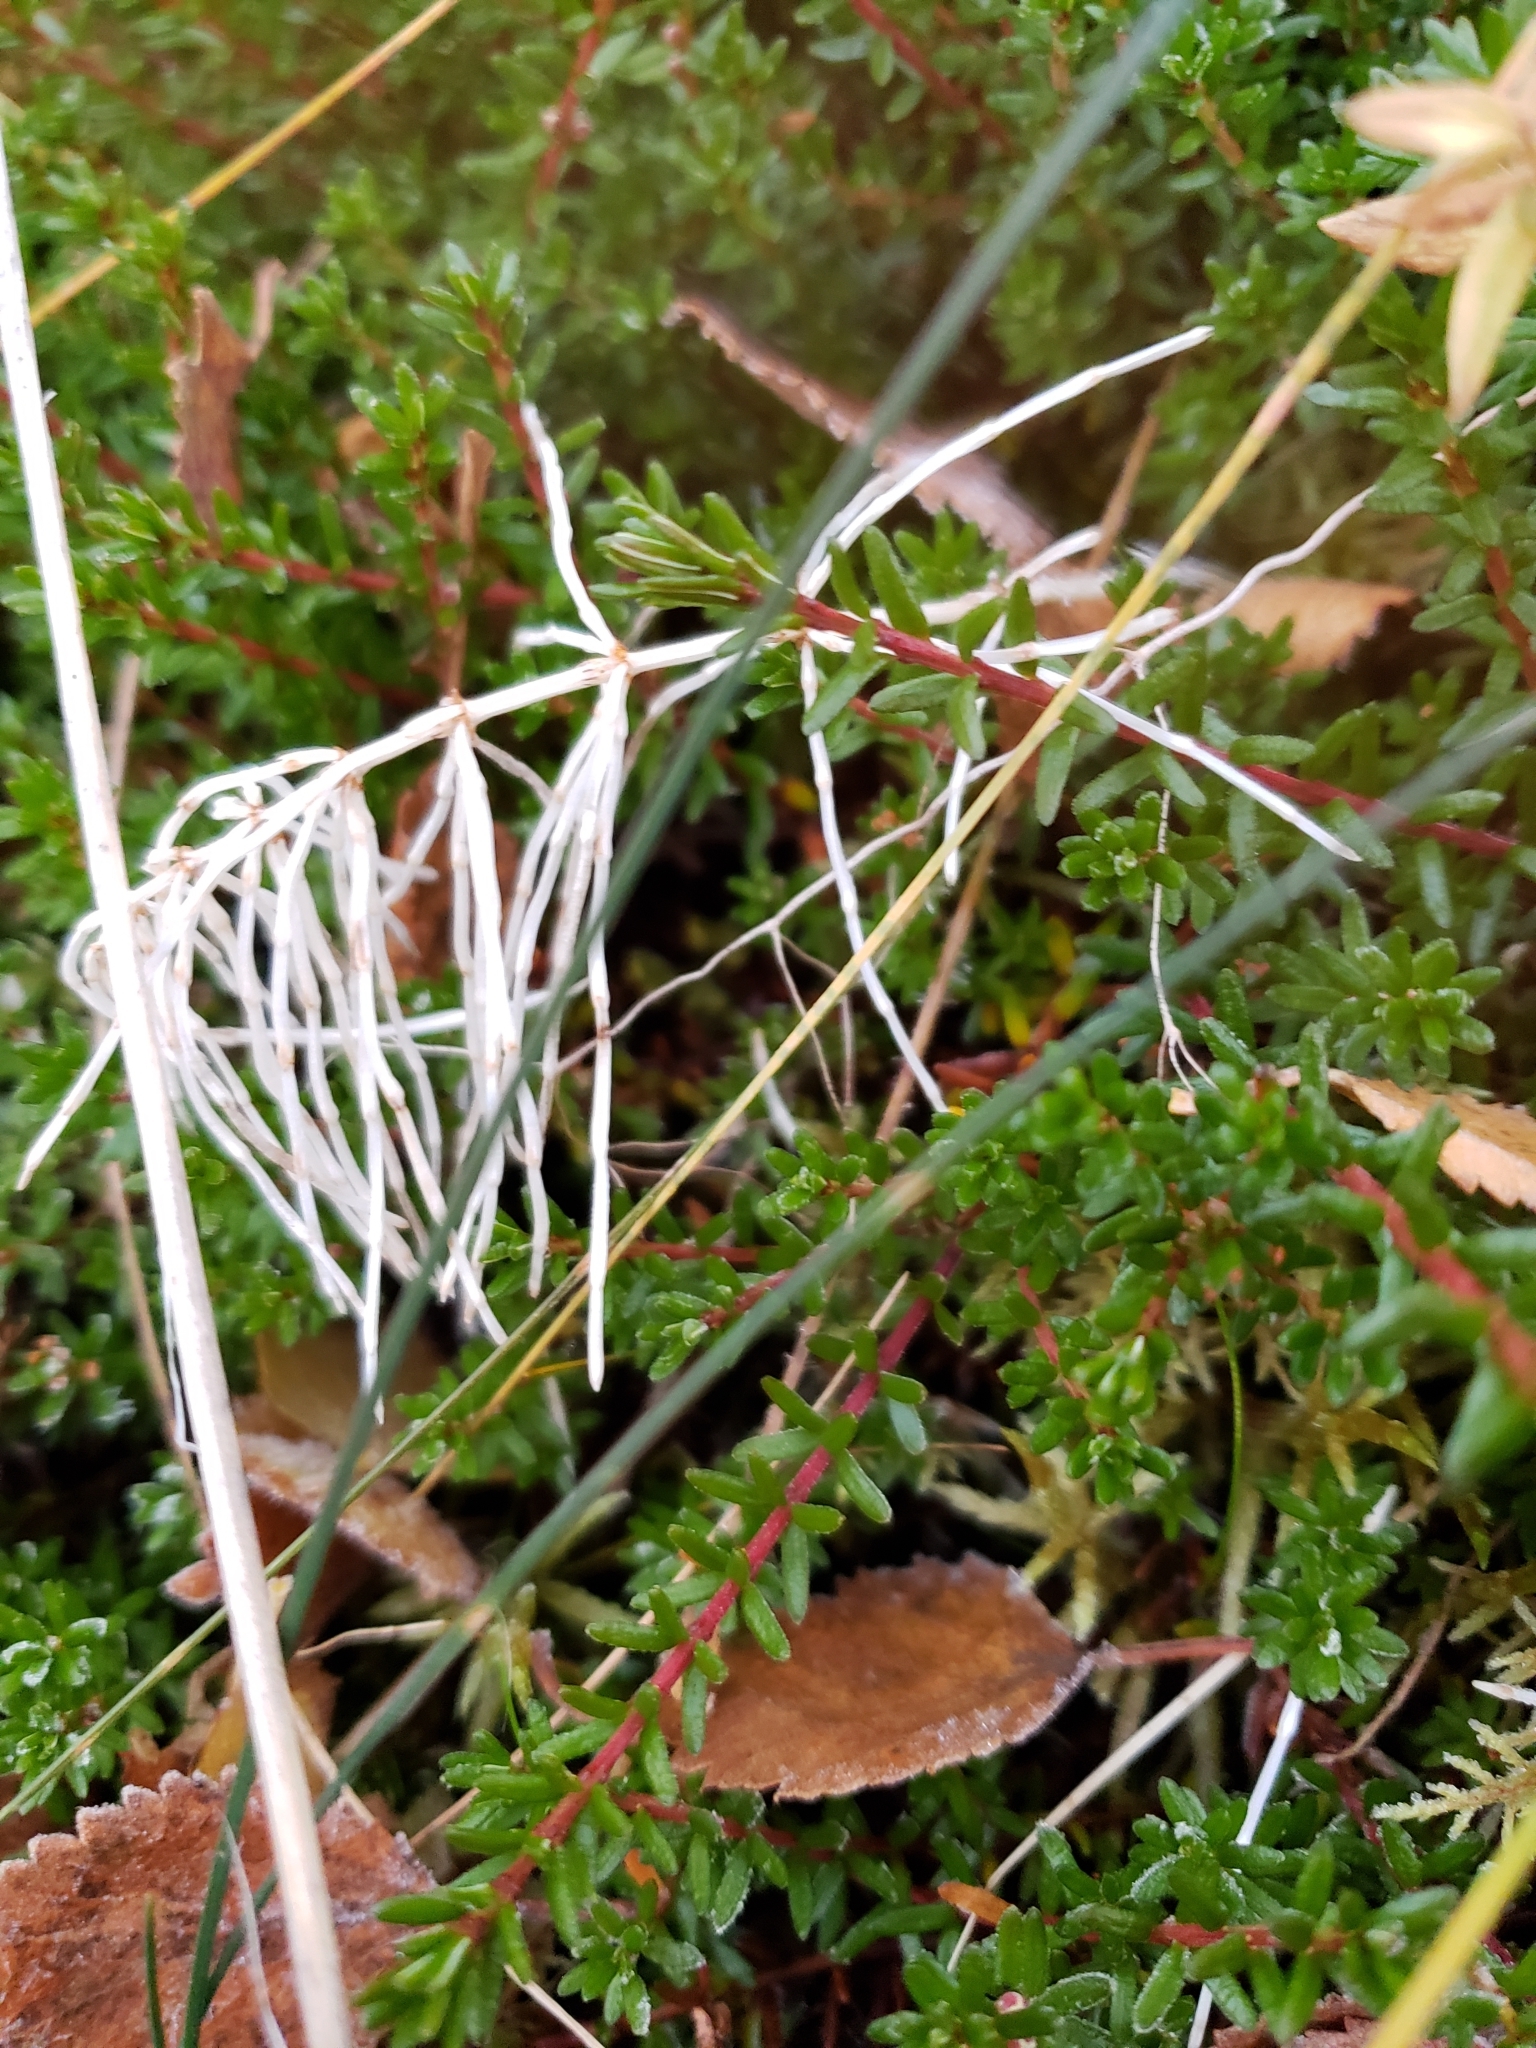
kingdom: Plantae
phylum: Tracheophyta
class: Magnoliopsida
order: Ericales
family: Ericaceae
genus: Empetrum
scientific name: Empetrum nigrum
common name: Black crowberry
